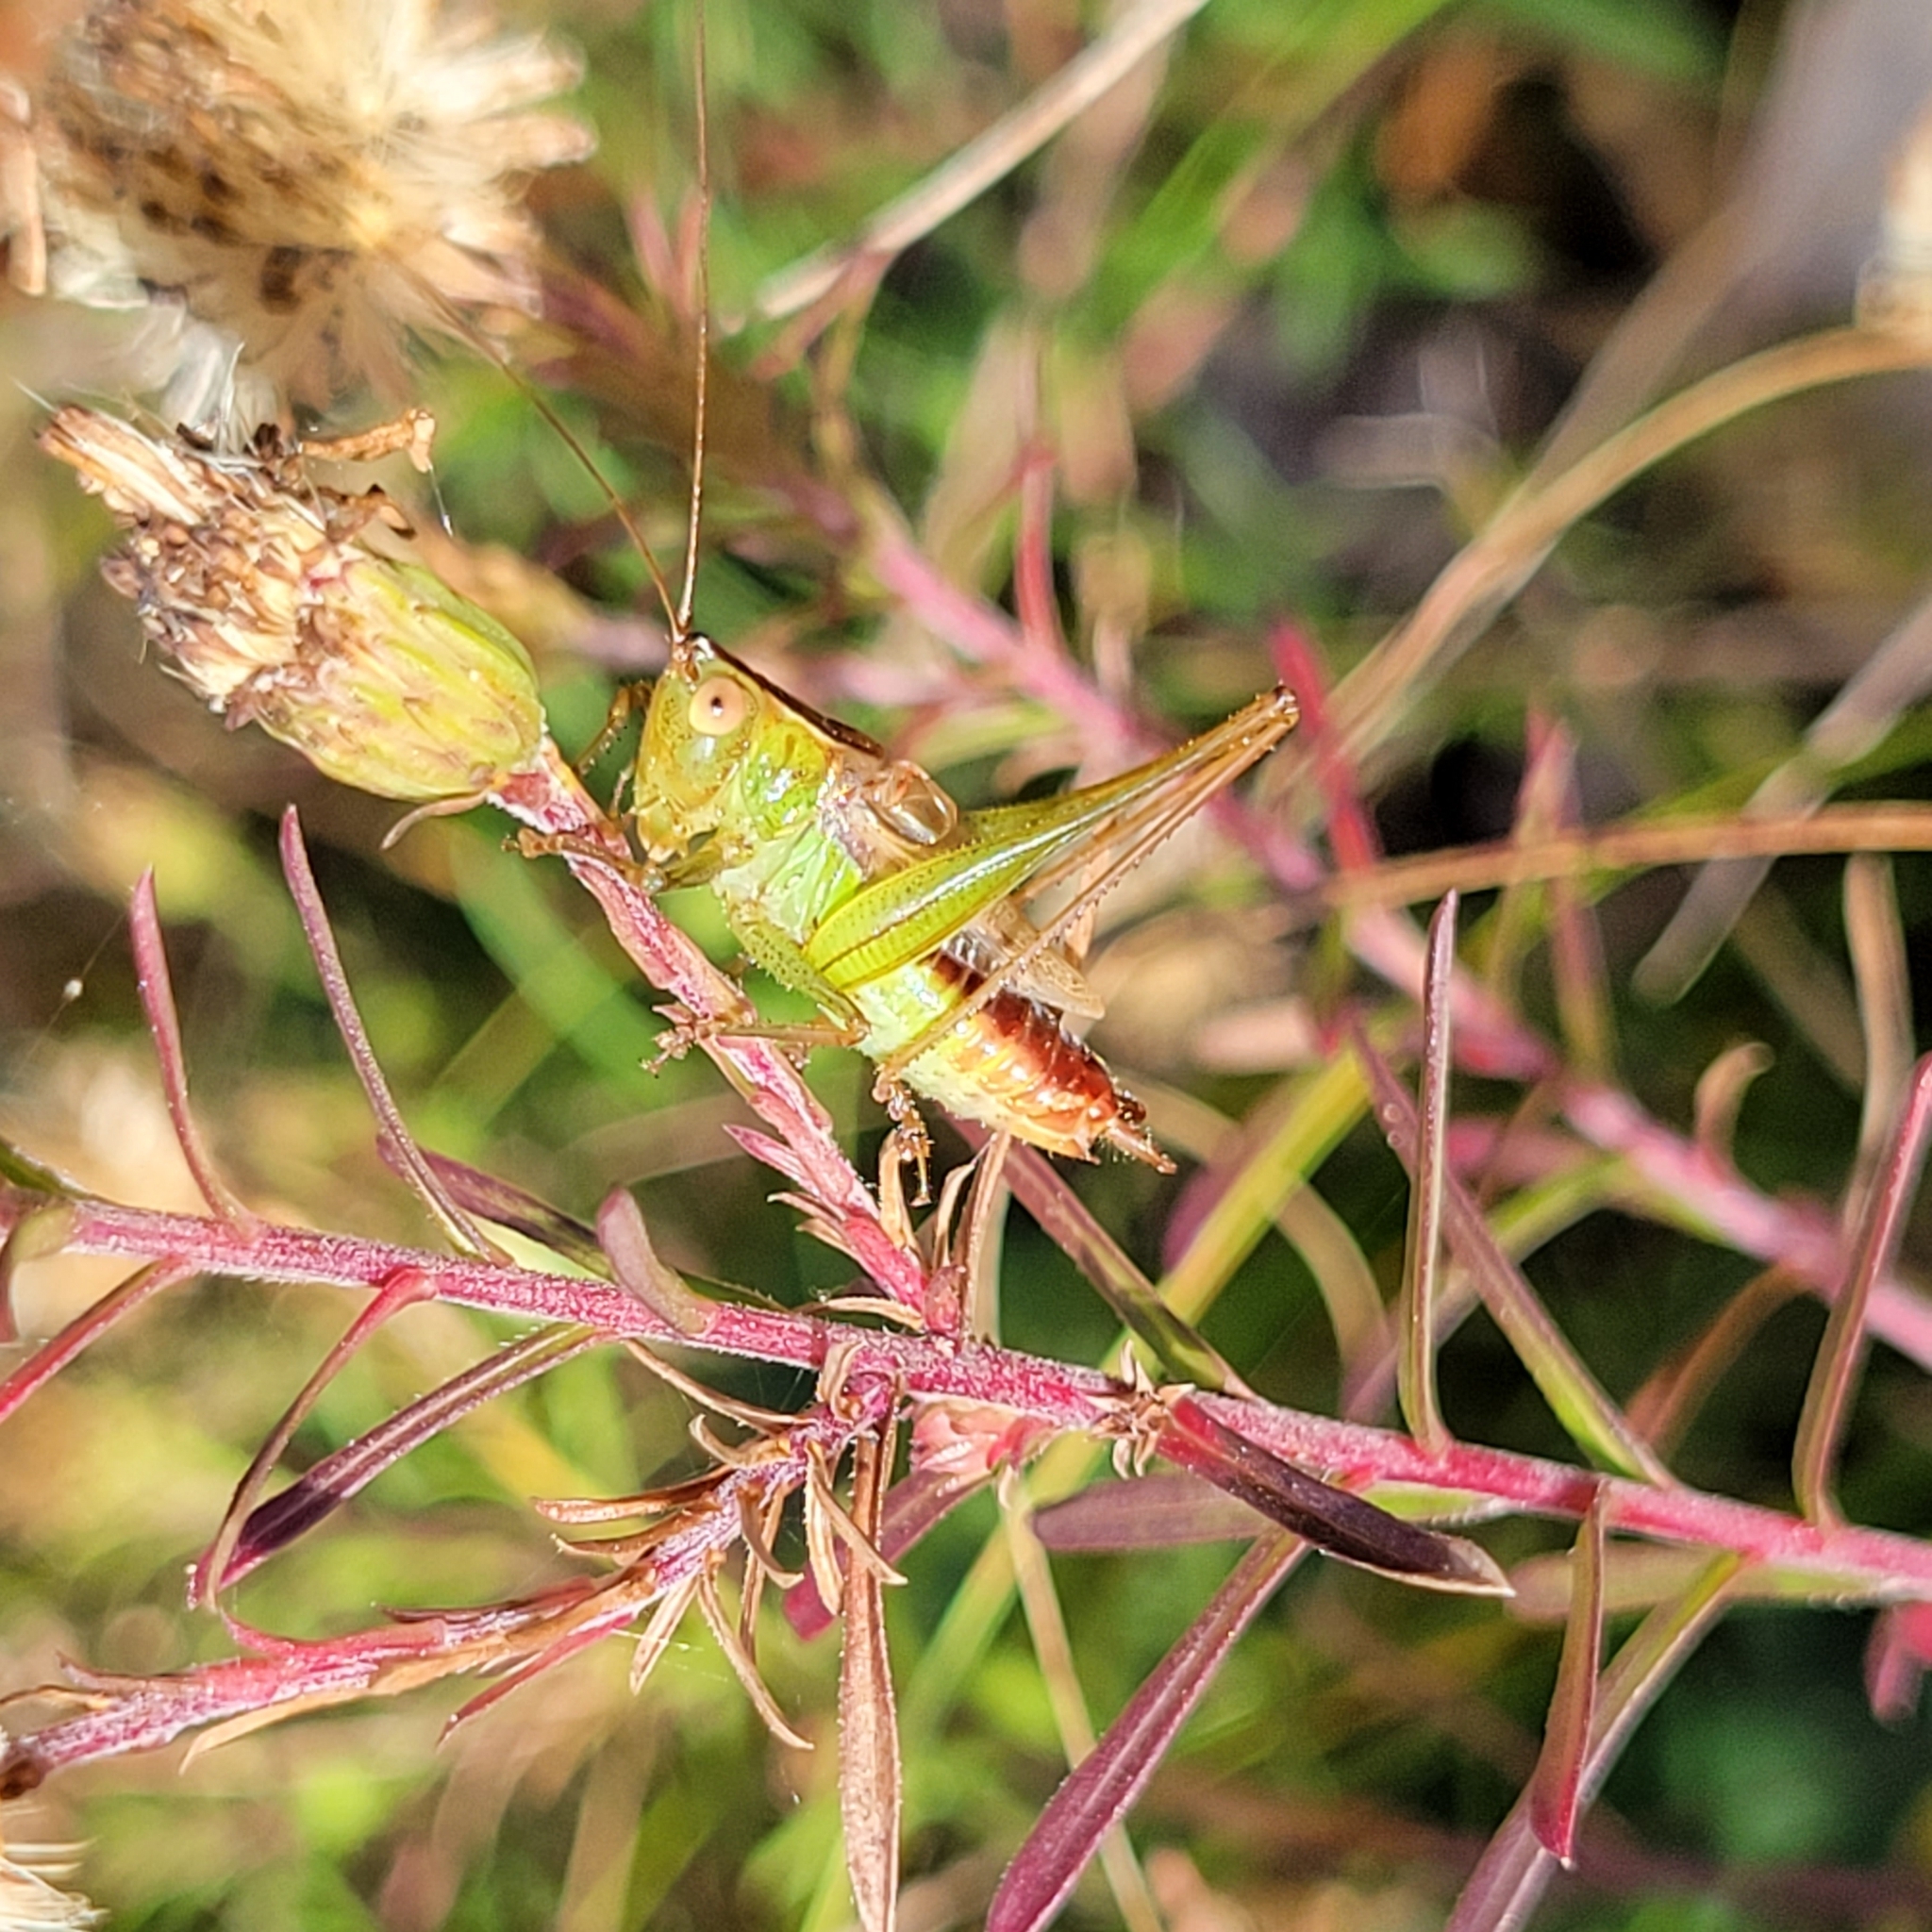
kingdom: Animalia
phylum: Arthropoda
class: Insecta
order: Orthoptera
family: Tettigoniidae
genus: Conocephalus
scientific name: Conocephalus brevipennis
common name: Short-winged meadow katydid
